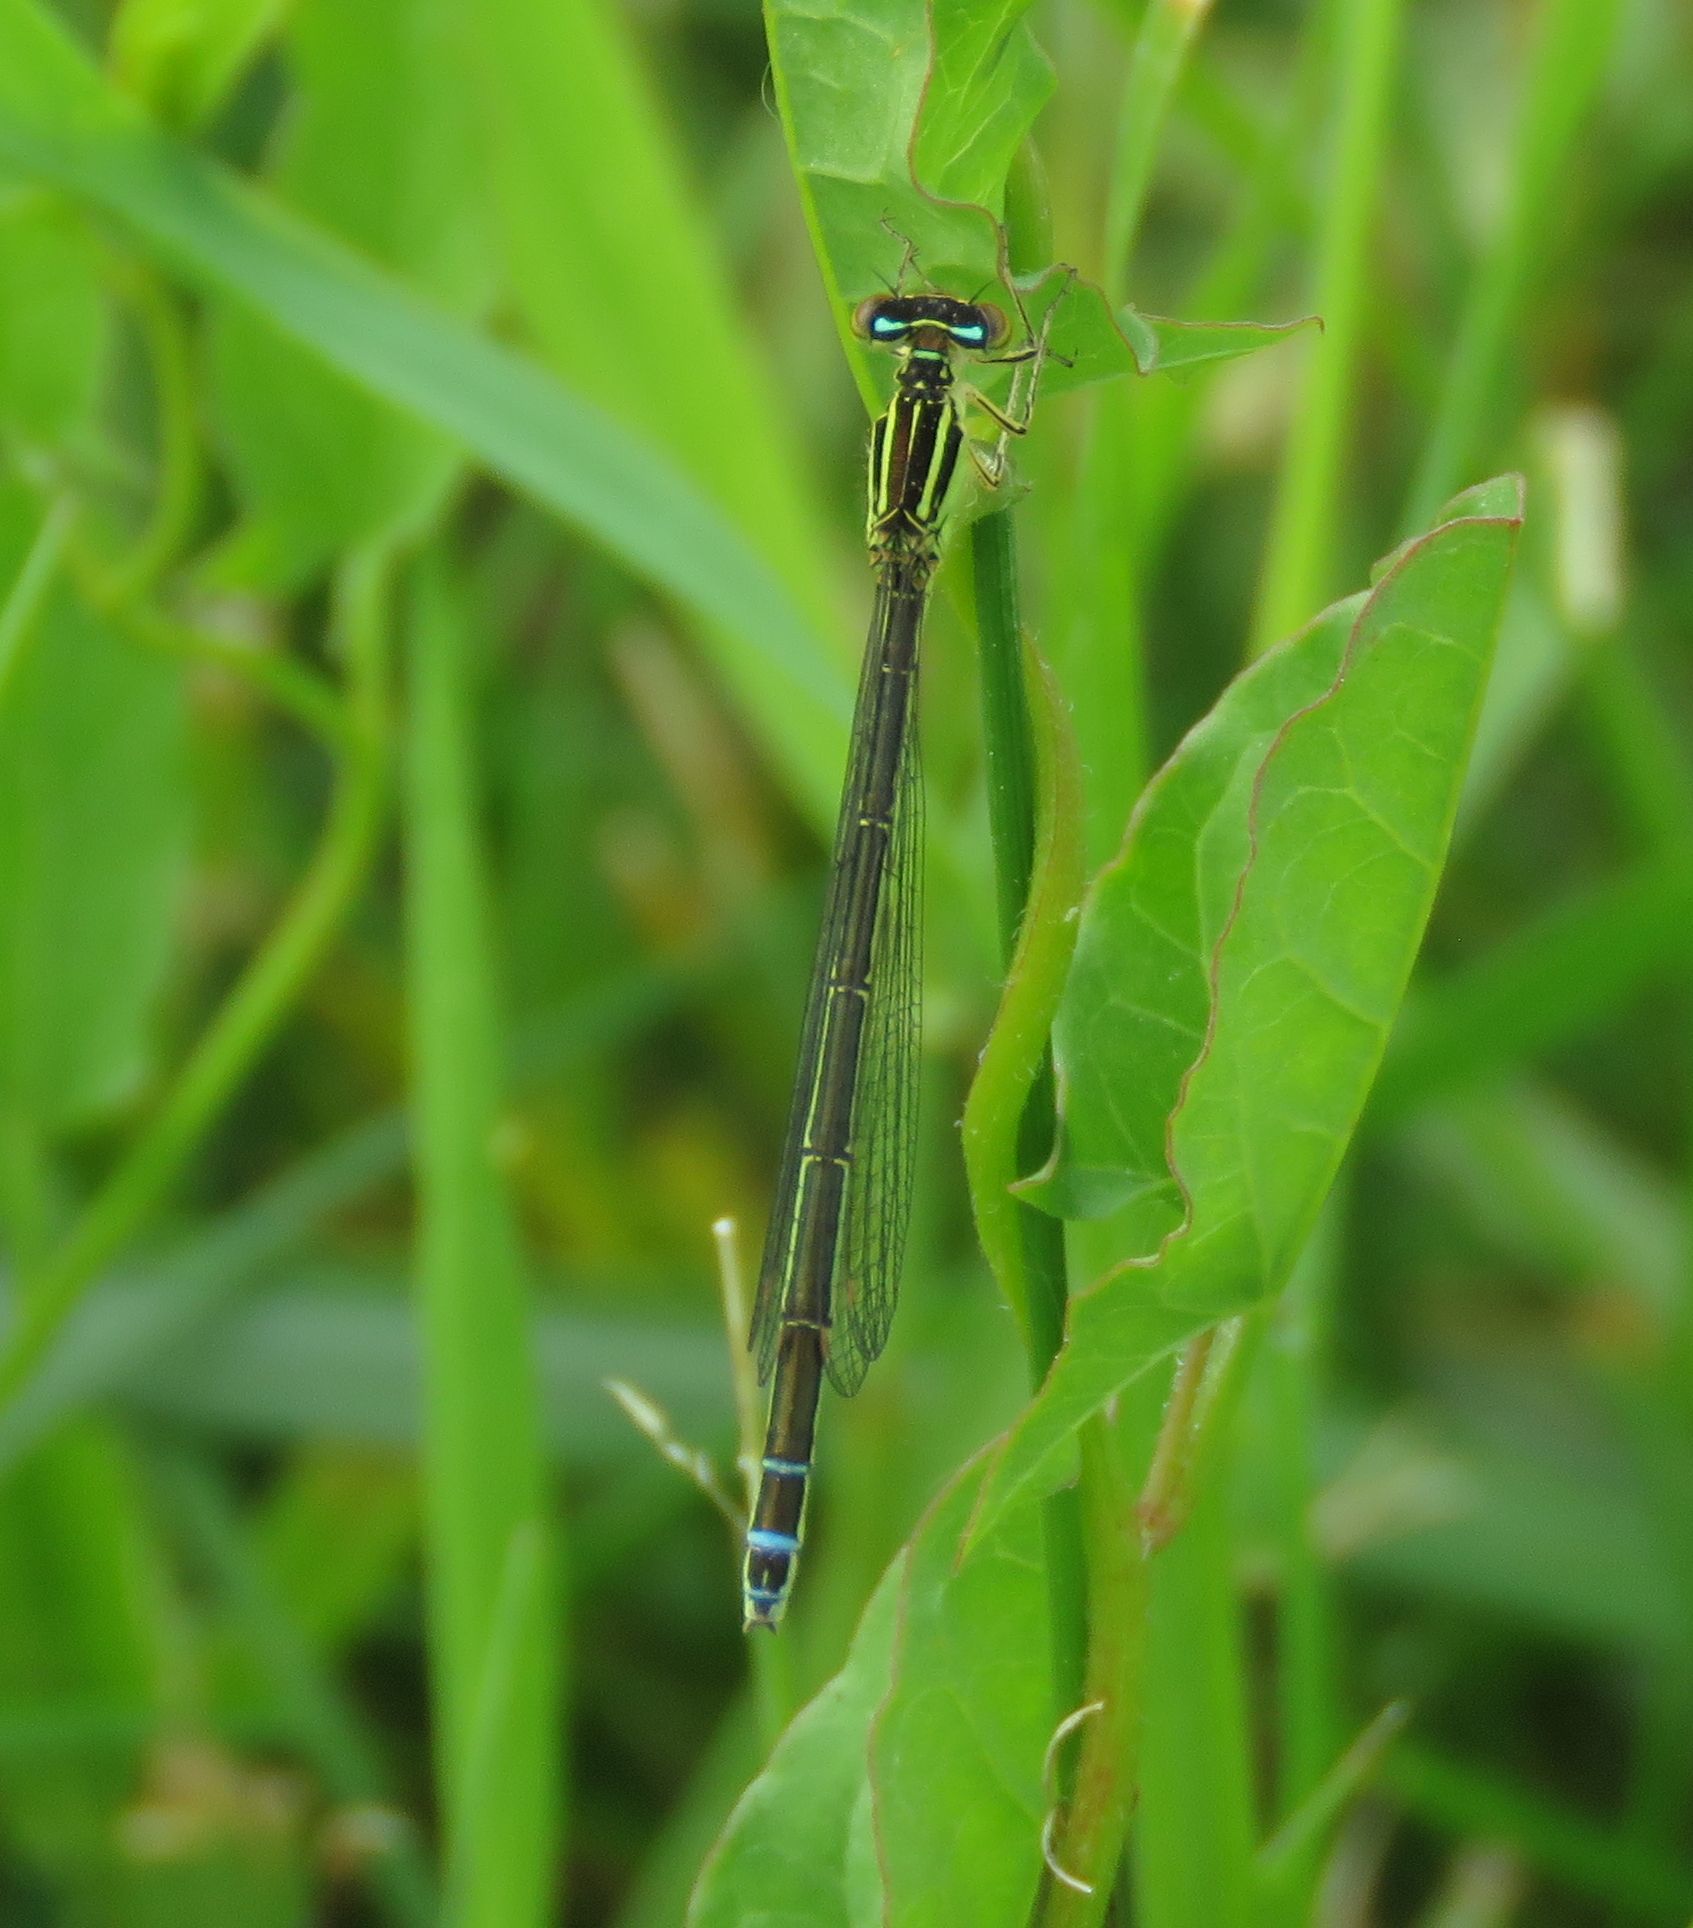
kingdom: Animalia
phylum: Arthropoda
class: Insecta
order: Odonata
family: Coenagrionidae
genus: Enallagma
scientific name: Enallagma antennatum
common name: Rainbow bluet
